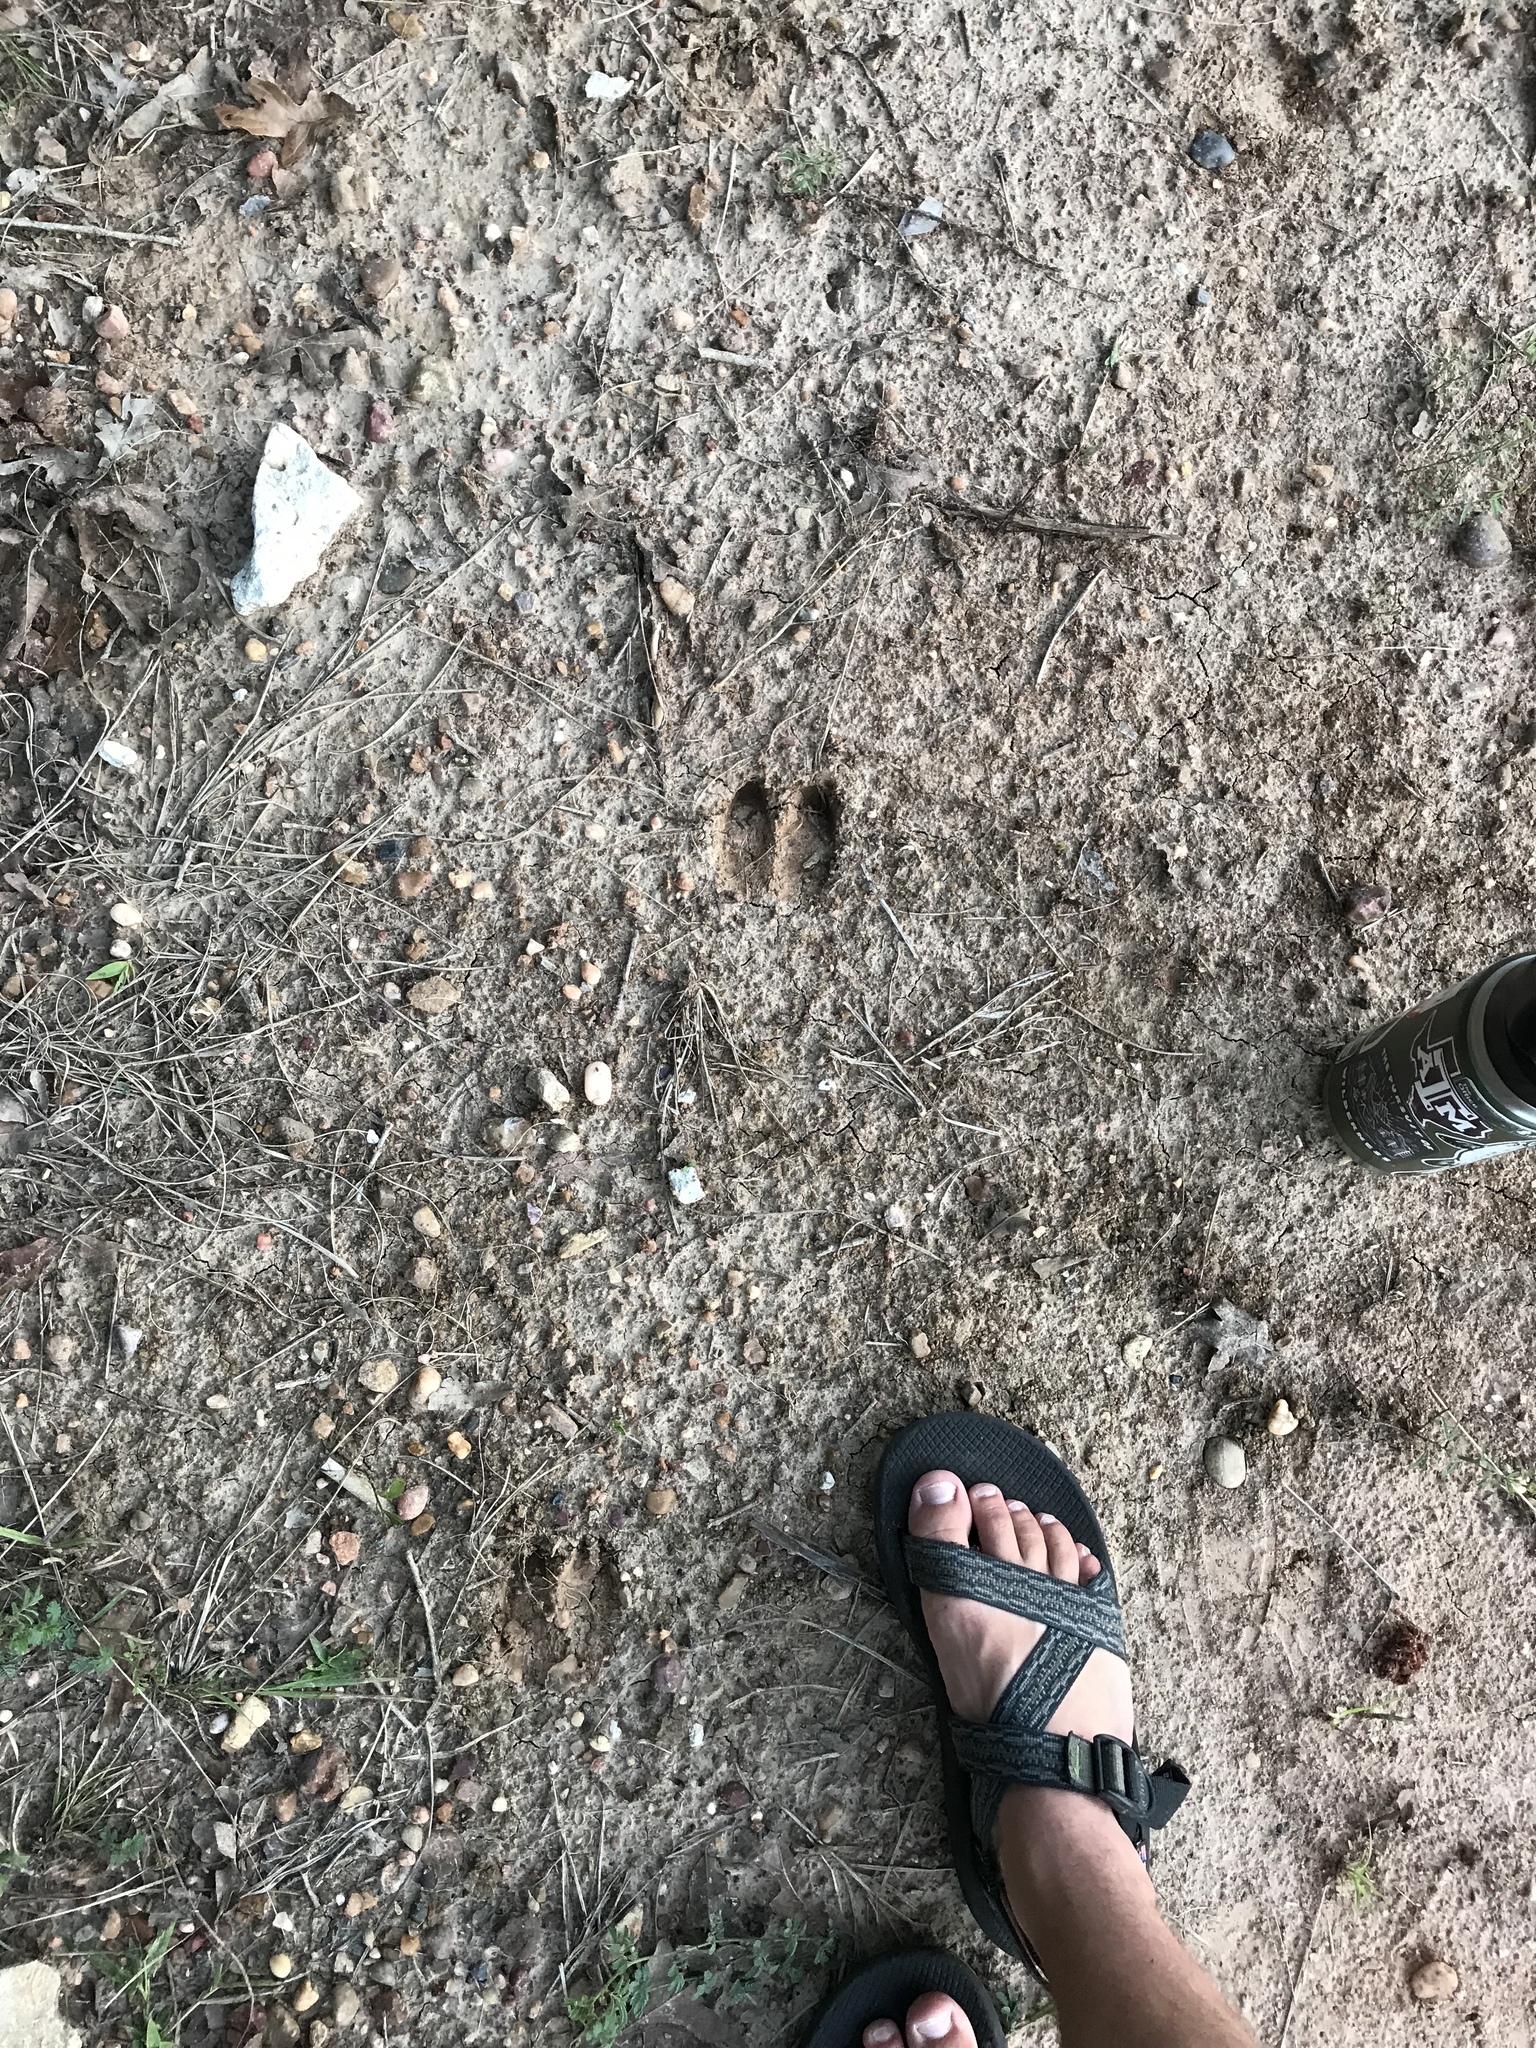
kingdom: Animalia
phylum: Chordata
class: Mammalia
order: Artiodactyla
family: Suidae
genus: Sus
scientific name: Sus scrofa
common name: Wild boar
